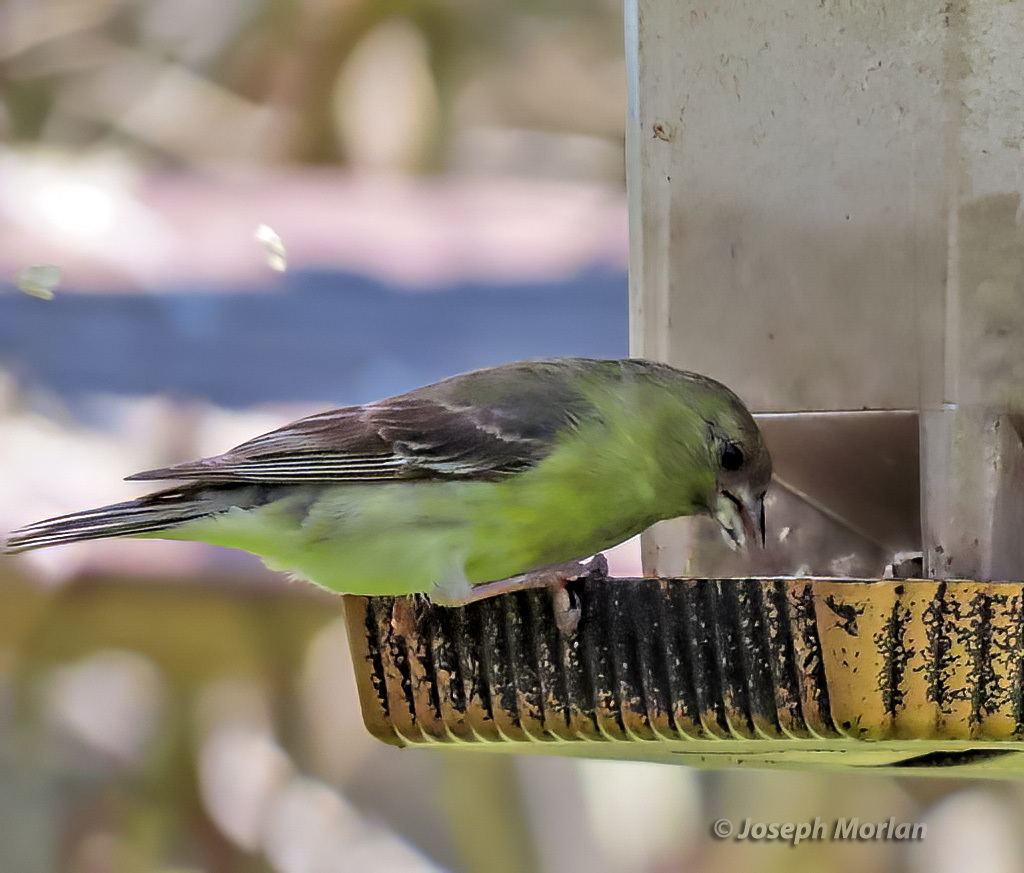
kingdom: Animalia
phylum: Chordata
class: Aves
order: Passeriformes
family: Fringillidae
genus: Spinus
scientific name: Spinus psaltria
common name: Lesser goldfinch
